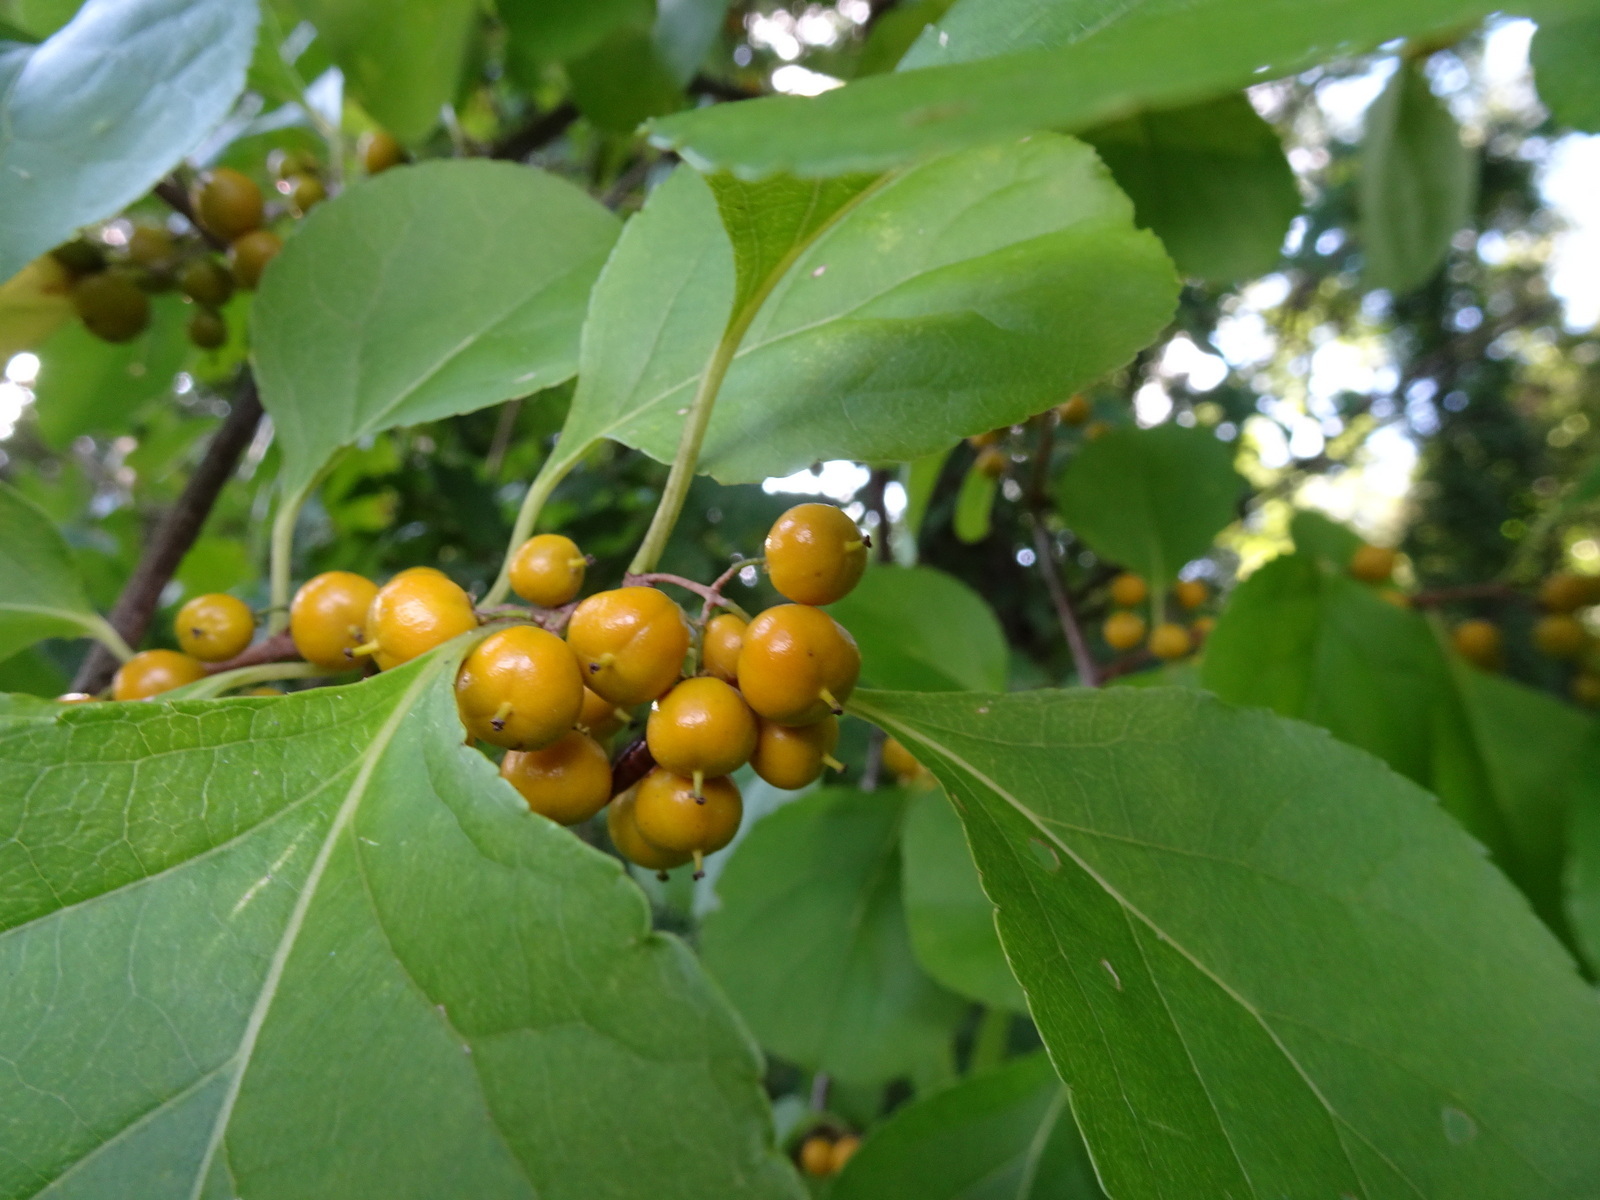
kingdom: Plantae
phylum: Tracheophyta
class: Magnoliopsida
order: Celastrales
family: Celastraceae
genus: Celastrus
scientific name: Celastrus orbiculatus
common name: Oriental bittersweet
